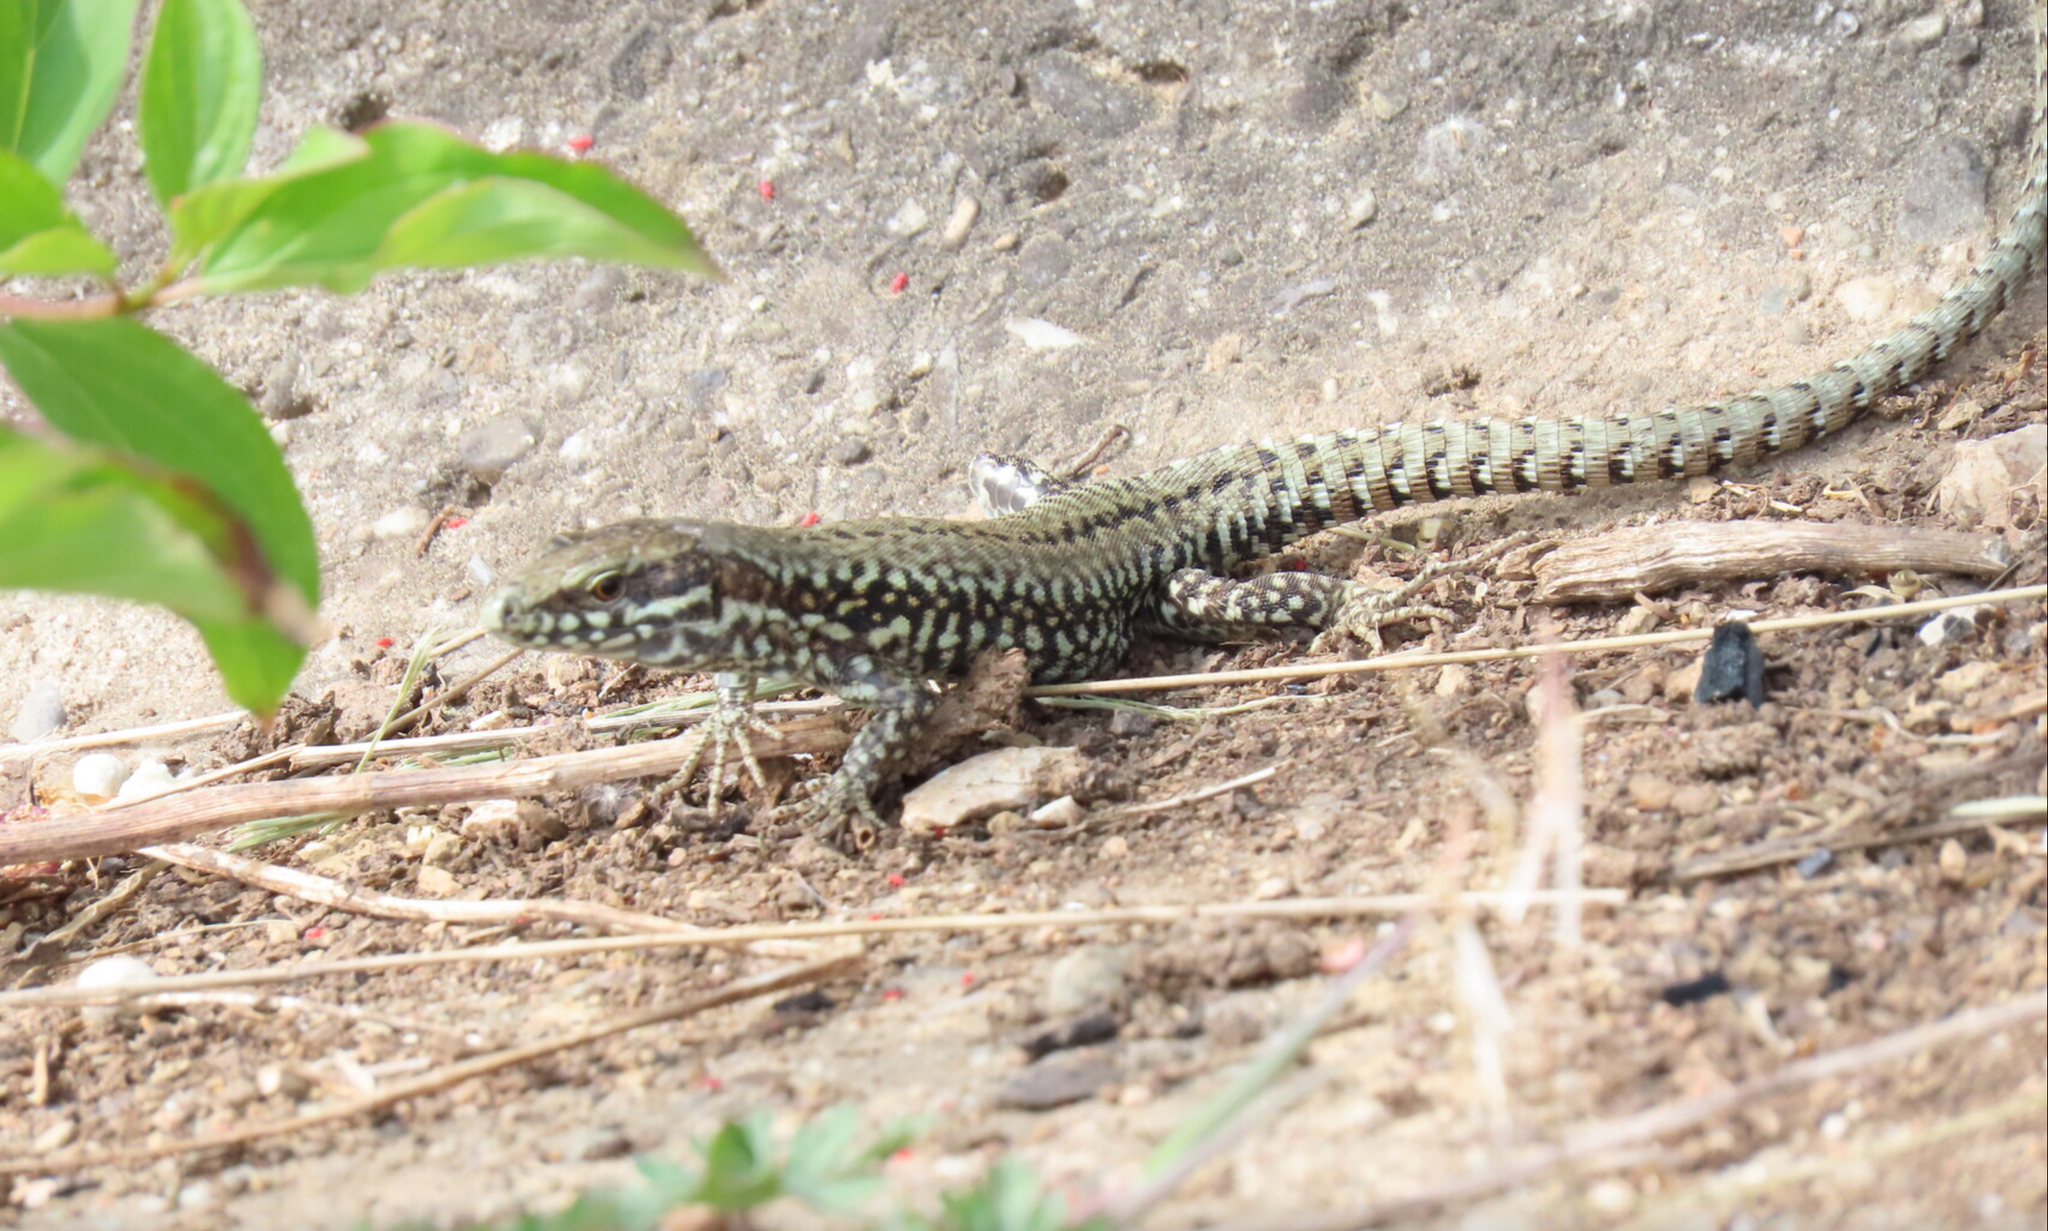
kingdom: Animalia
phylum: Chordata
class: Squamata
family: Lacertidae
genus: Podarcis
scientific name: Podarcis muralis
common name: Common wall lizard
